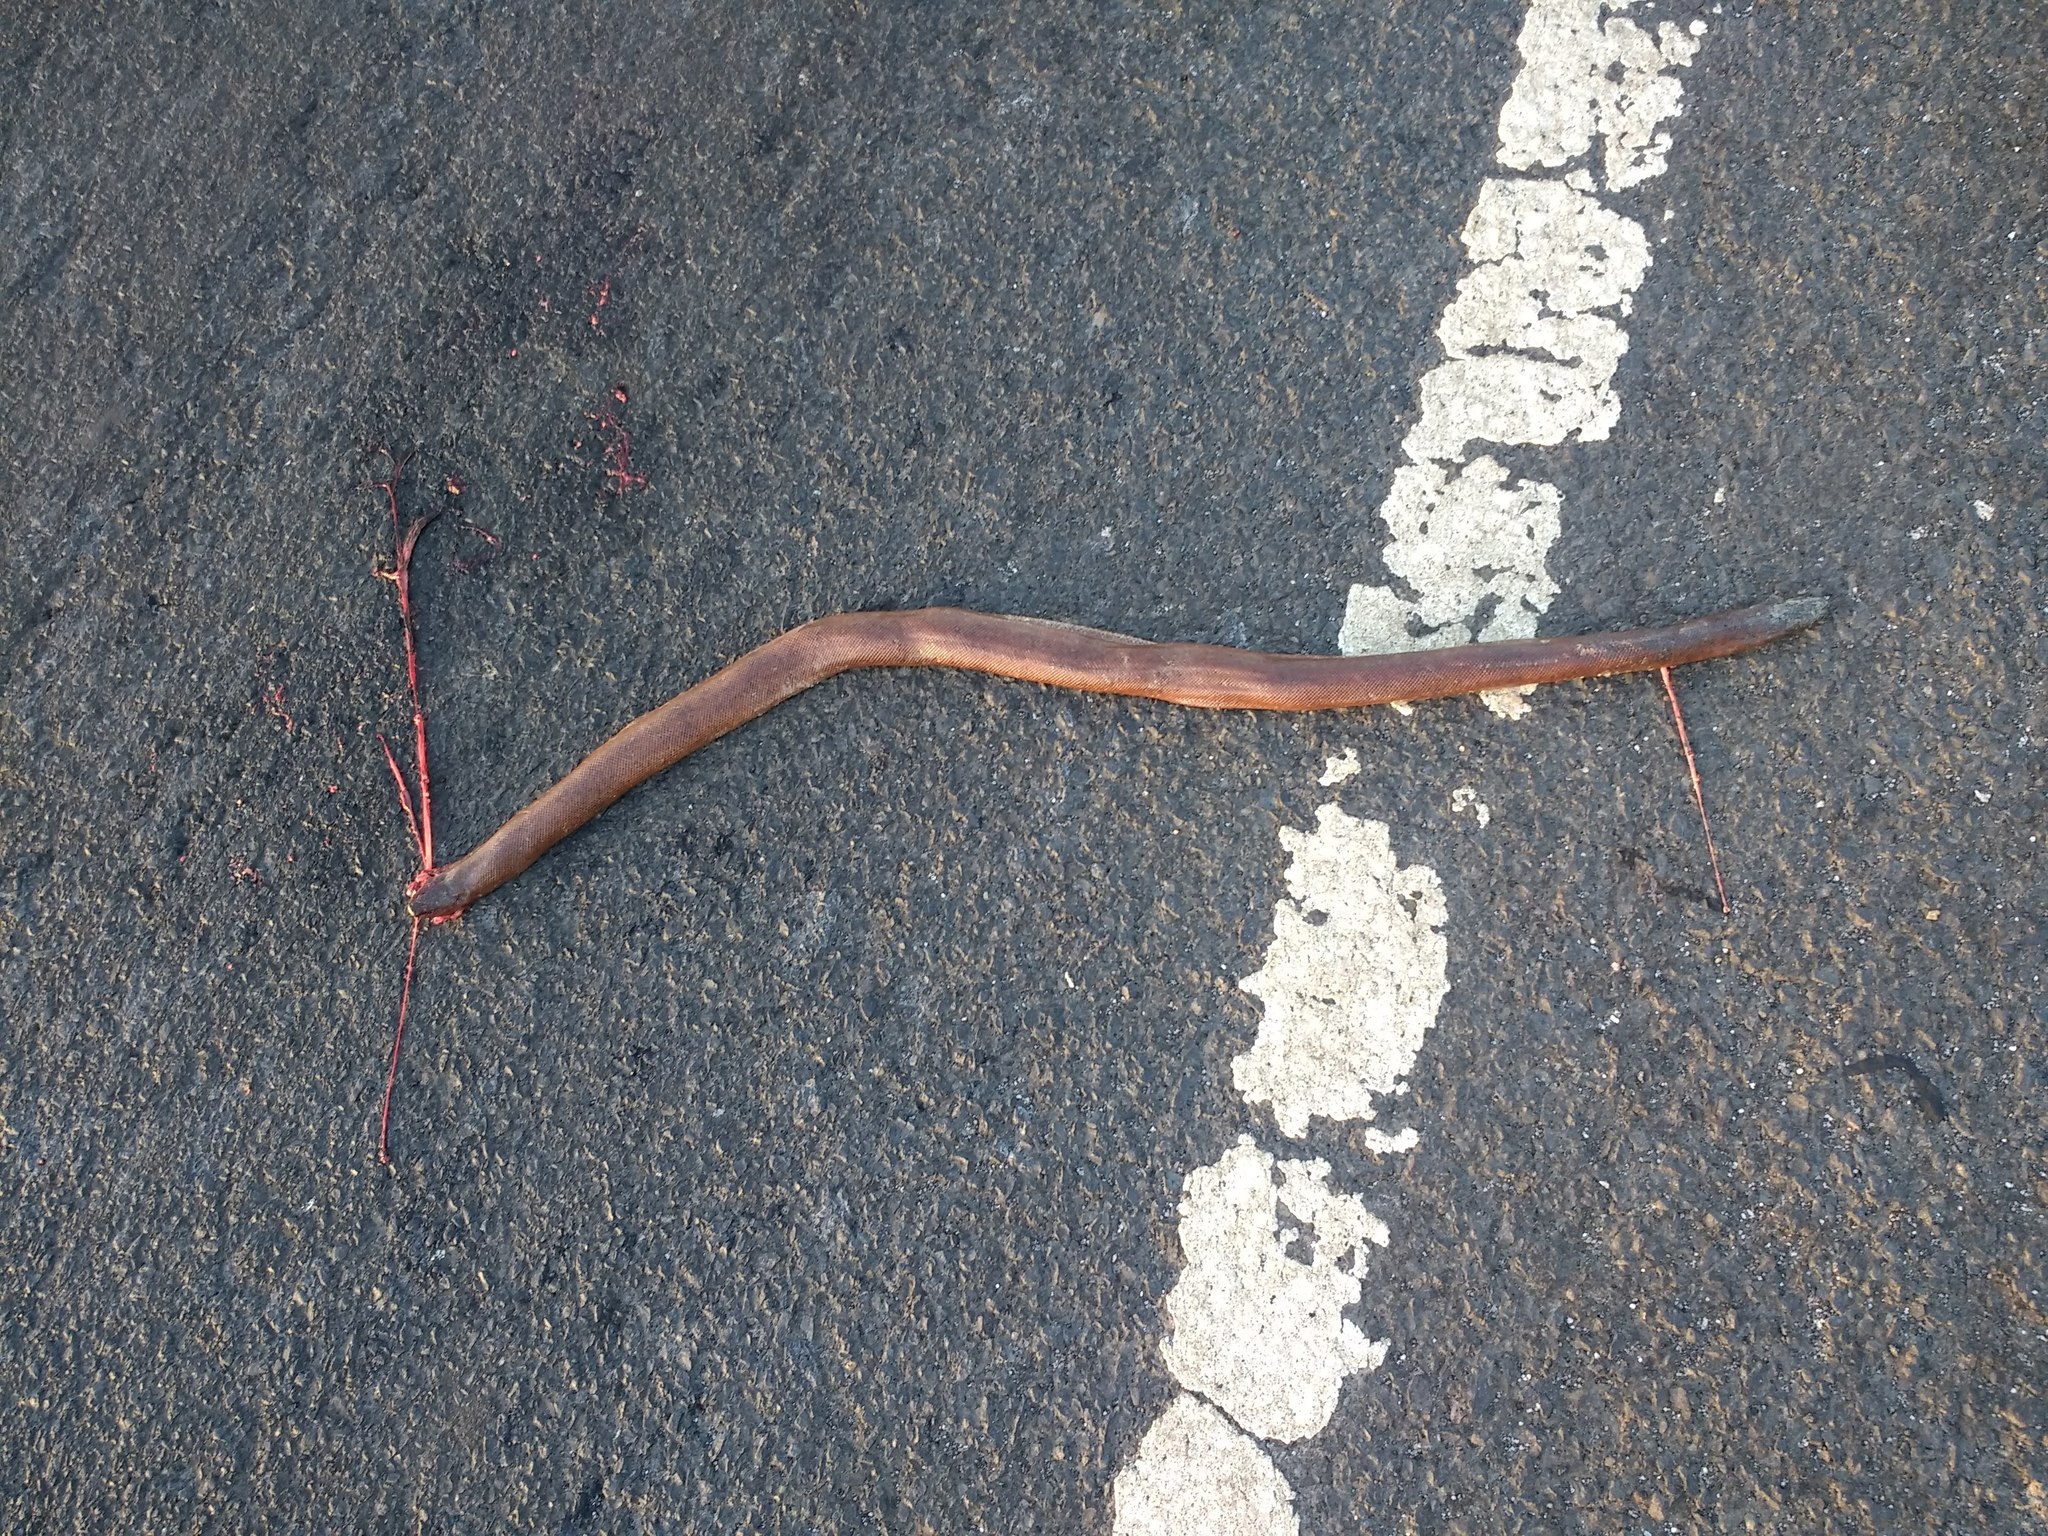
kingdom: Animalia
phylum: Chordata
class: Squamata
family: Boidae
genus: Eryx
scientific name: Eryx johnii
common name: Brown sand boa
